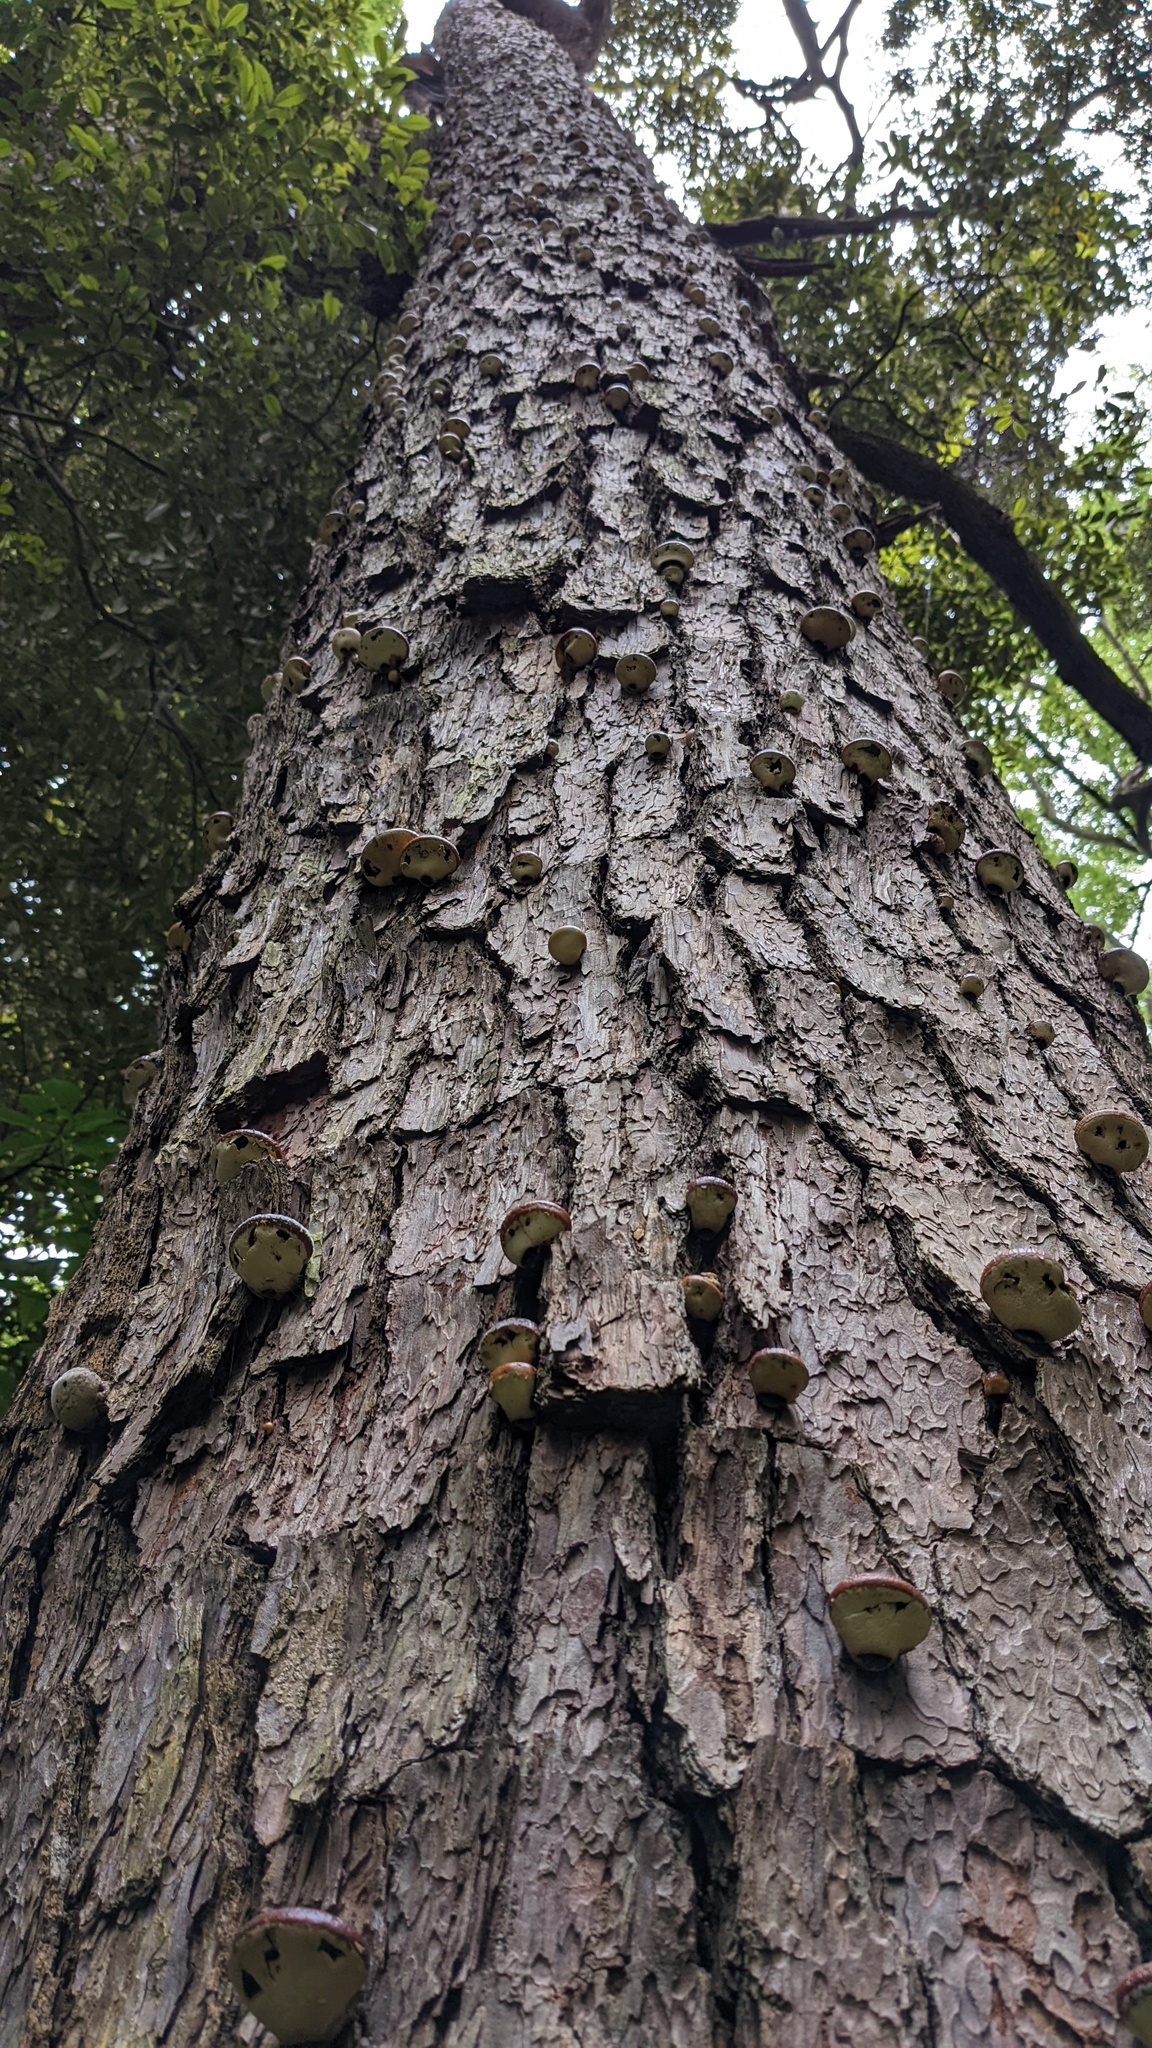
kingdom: Fungi
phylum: Basidiomycota
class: Agaricomycetes
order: Polyporales
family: Polyporaceae
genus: Cryptoporus
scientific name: Cryptoporus volvatus
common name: Veiled polypore
